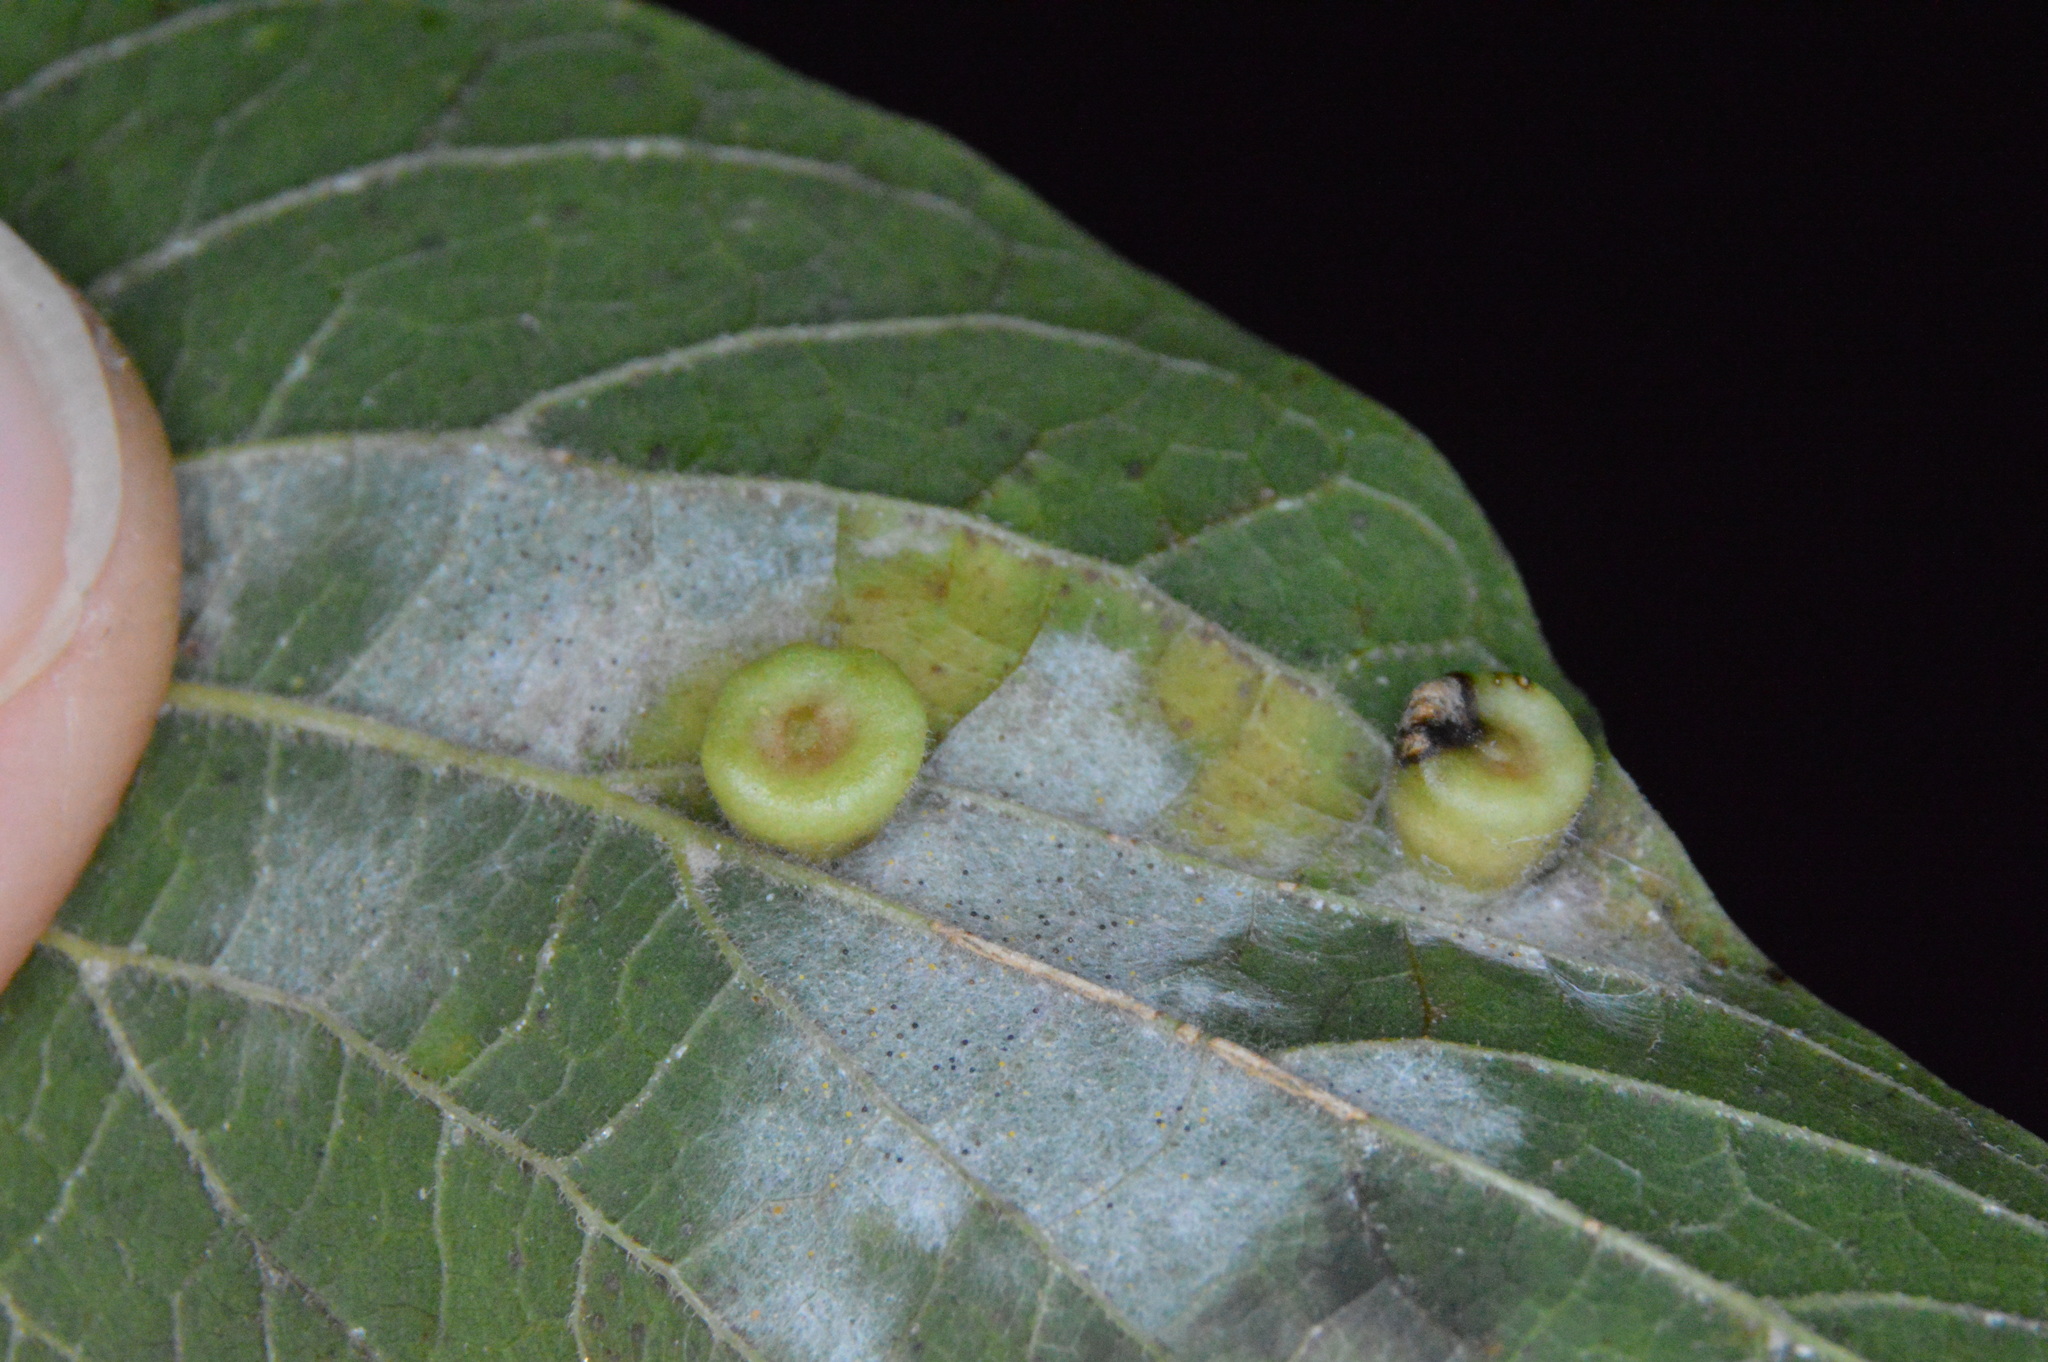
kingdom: Animalia
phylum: Arthropoda
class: Insecta
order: Hemiptera
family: Aphalaridae
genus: Pachypsylla
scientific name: Pachypsylla celtidismamma
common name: Hackberry nipplegall psyllid
